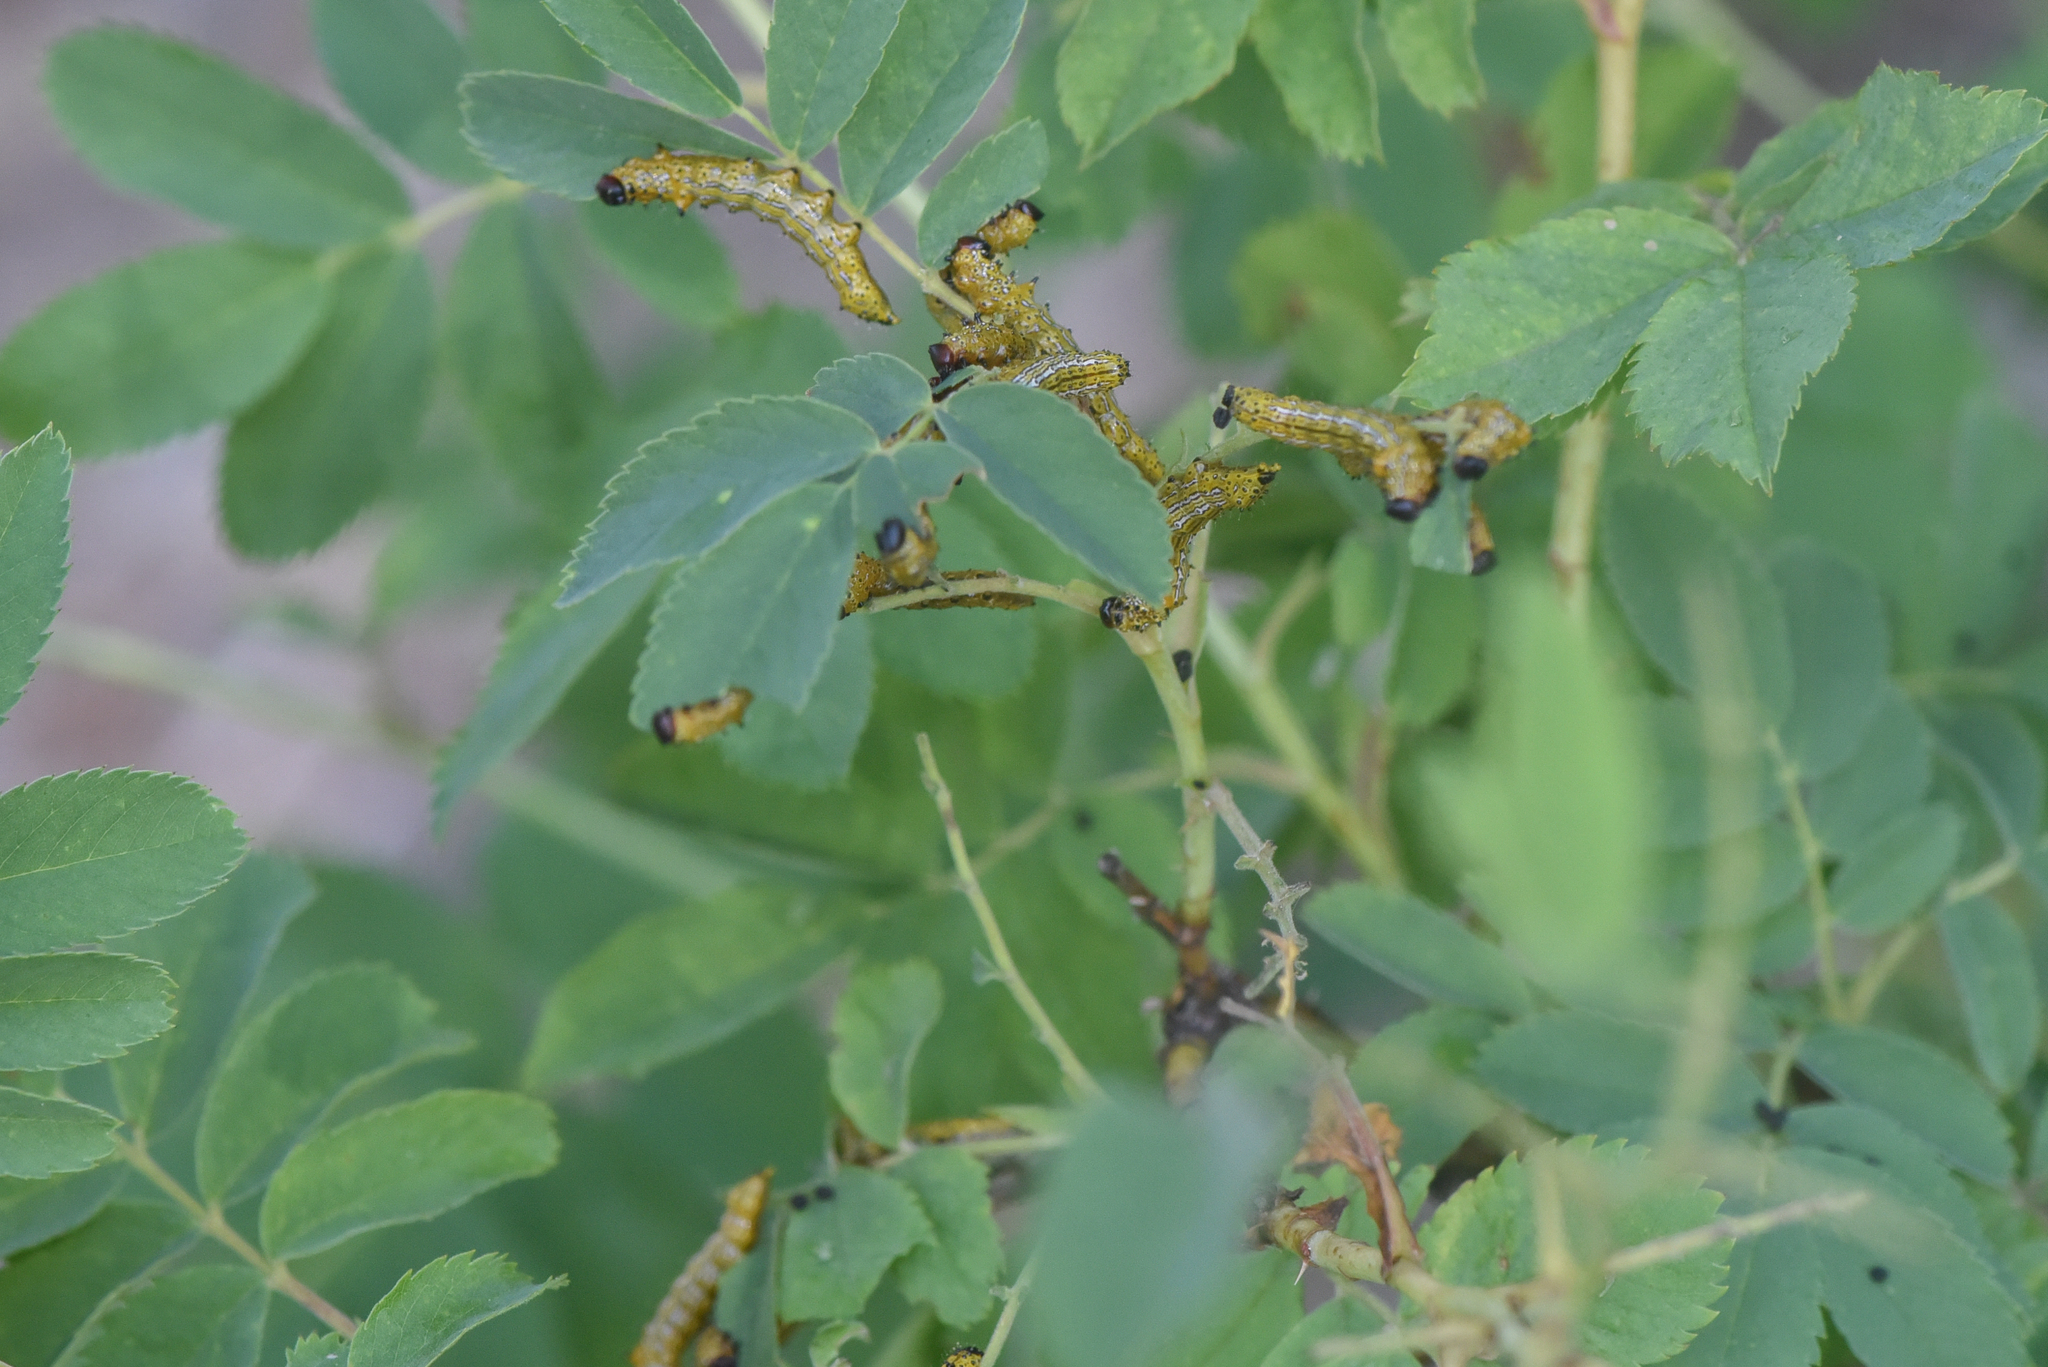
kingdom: Animalia
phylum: Arthropoda
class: Insecta
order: Lepidoptera
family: Notodontidae
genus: Schizura
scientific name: Schizura
